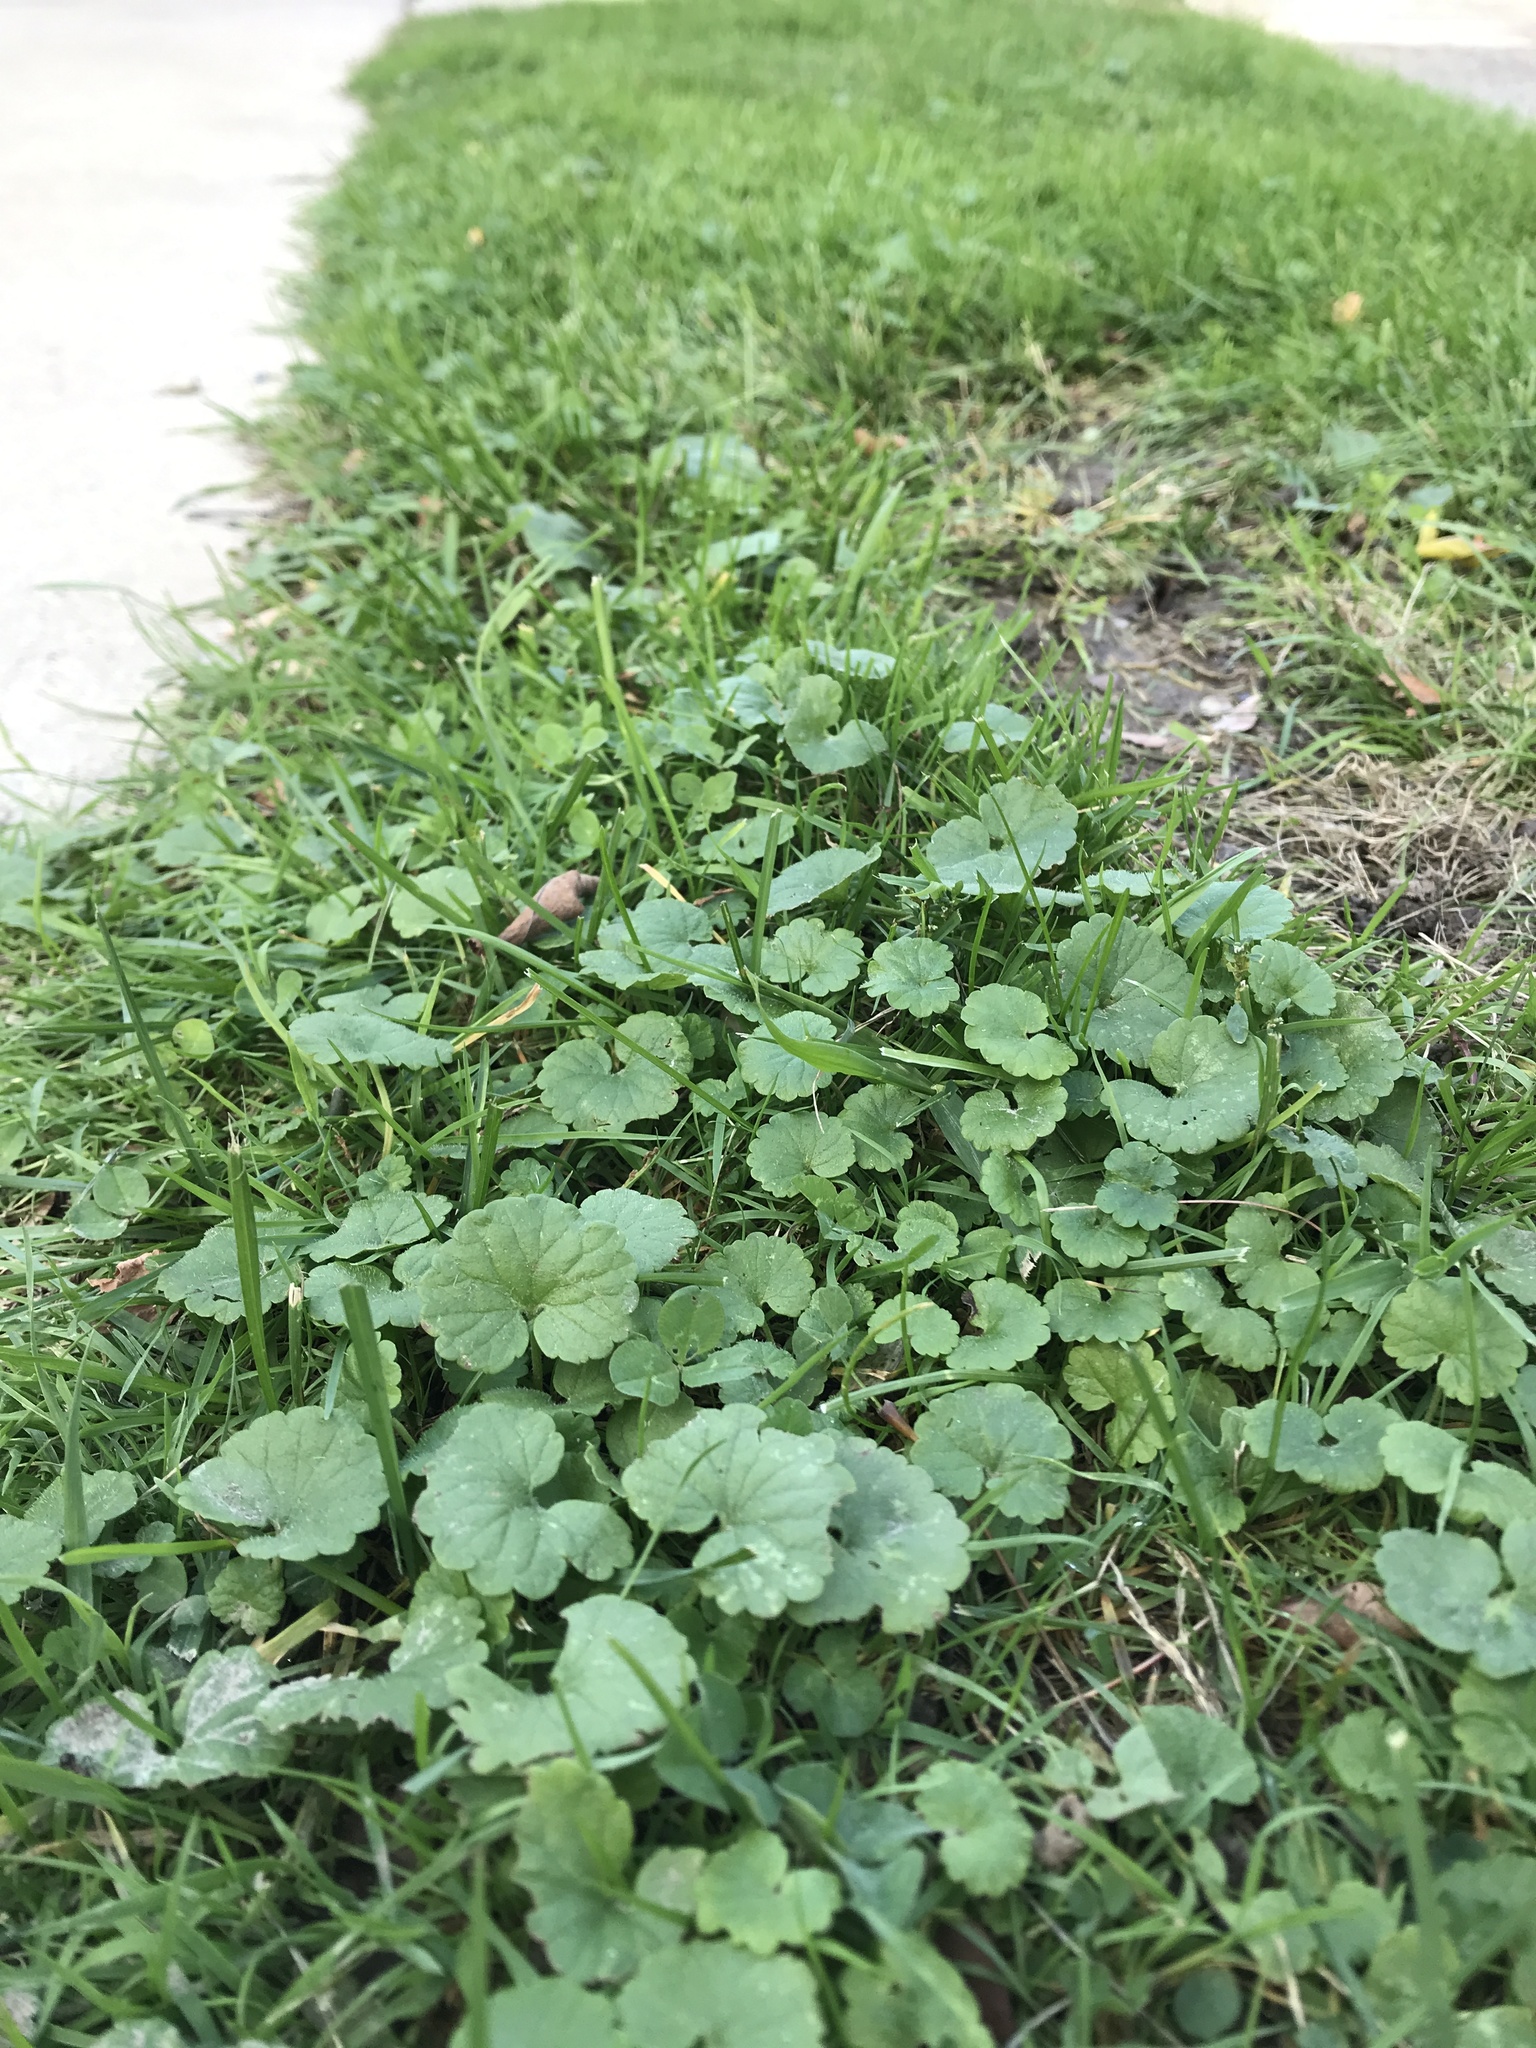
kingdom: Plantae
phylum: Tracheophyta
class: Magnoliopsida
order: Lamiales
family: Lamiaceae
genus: Glechoma
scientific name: Glechoma hederacea
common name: Ground ivy
